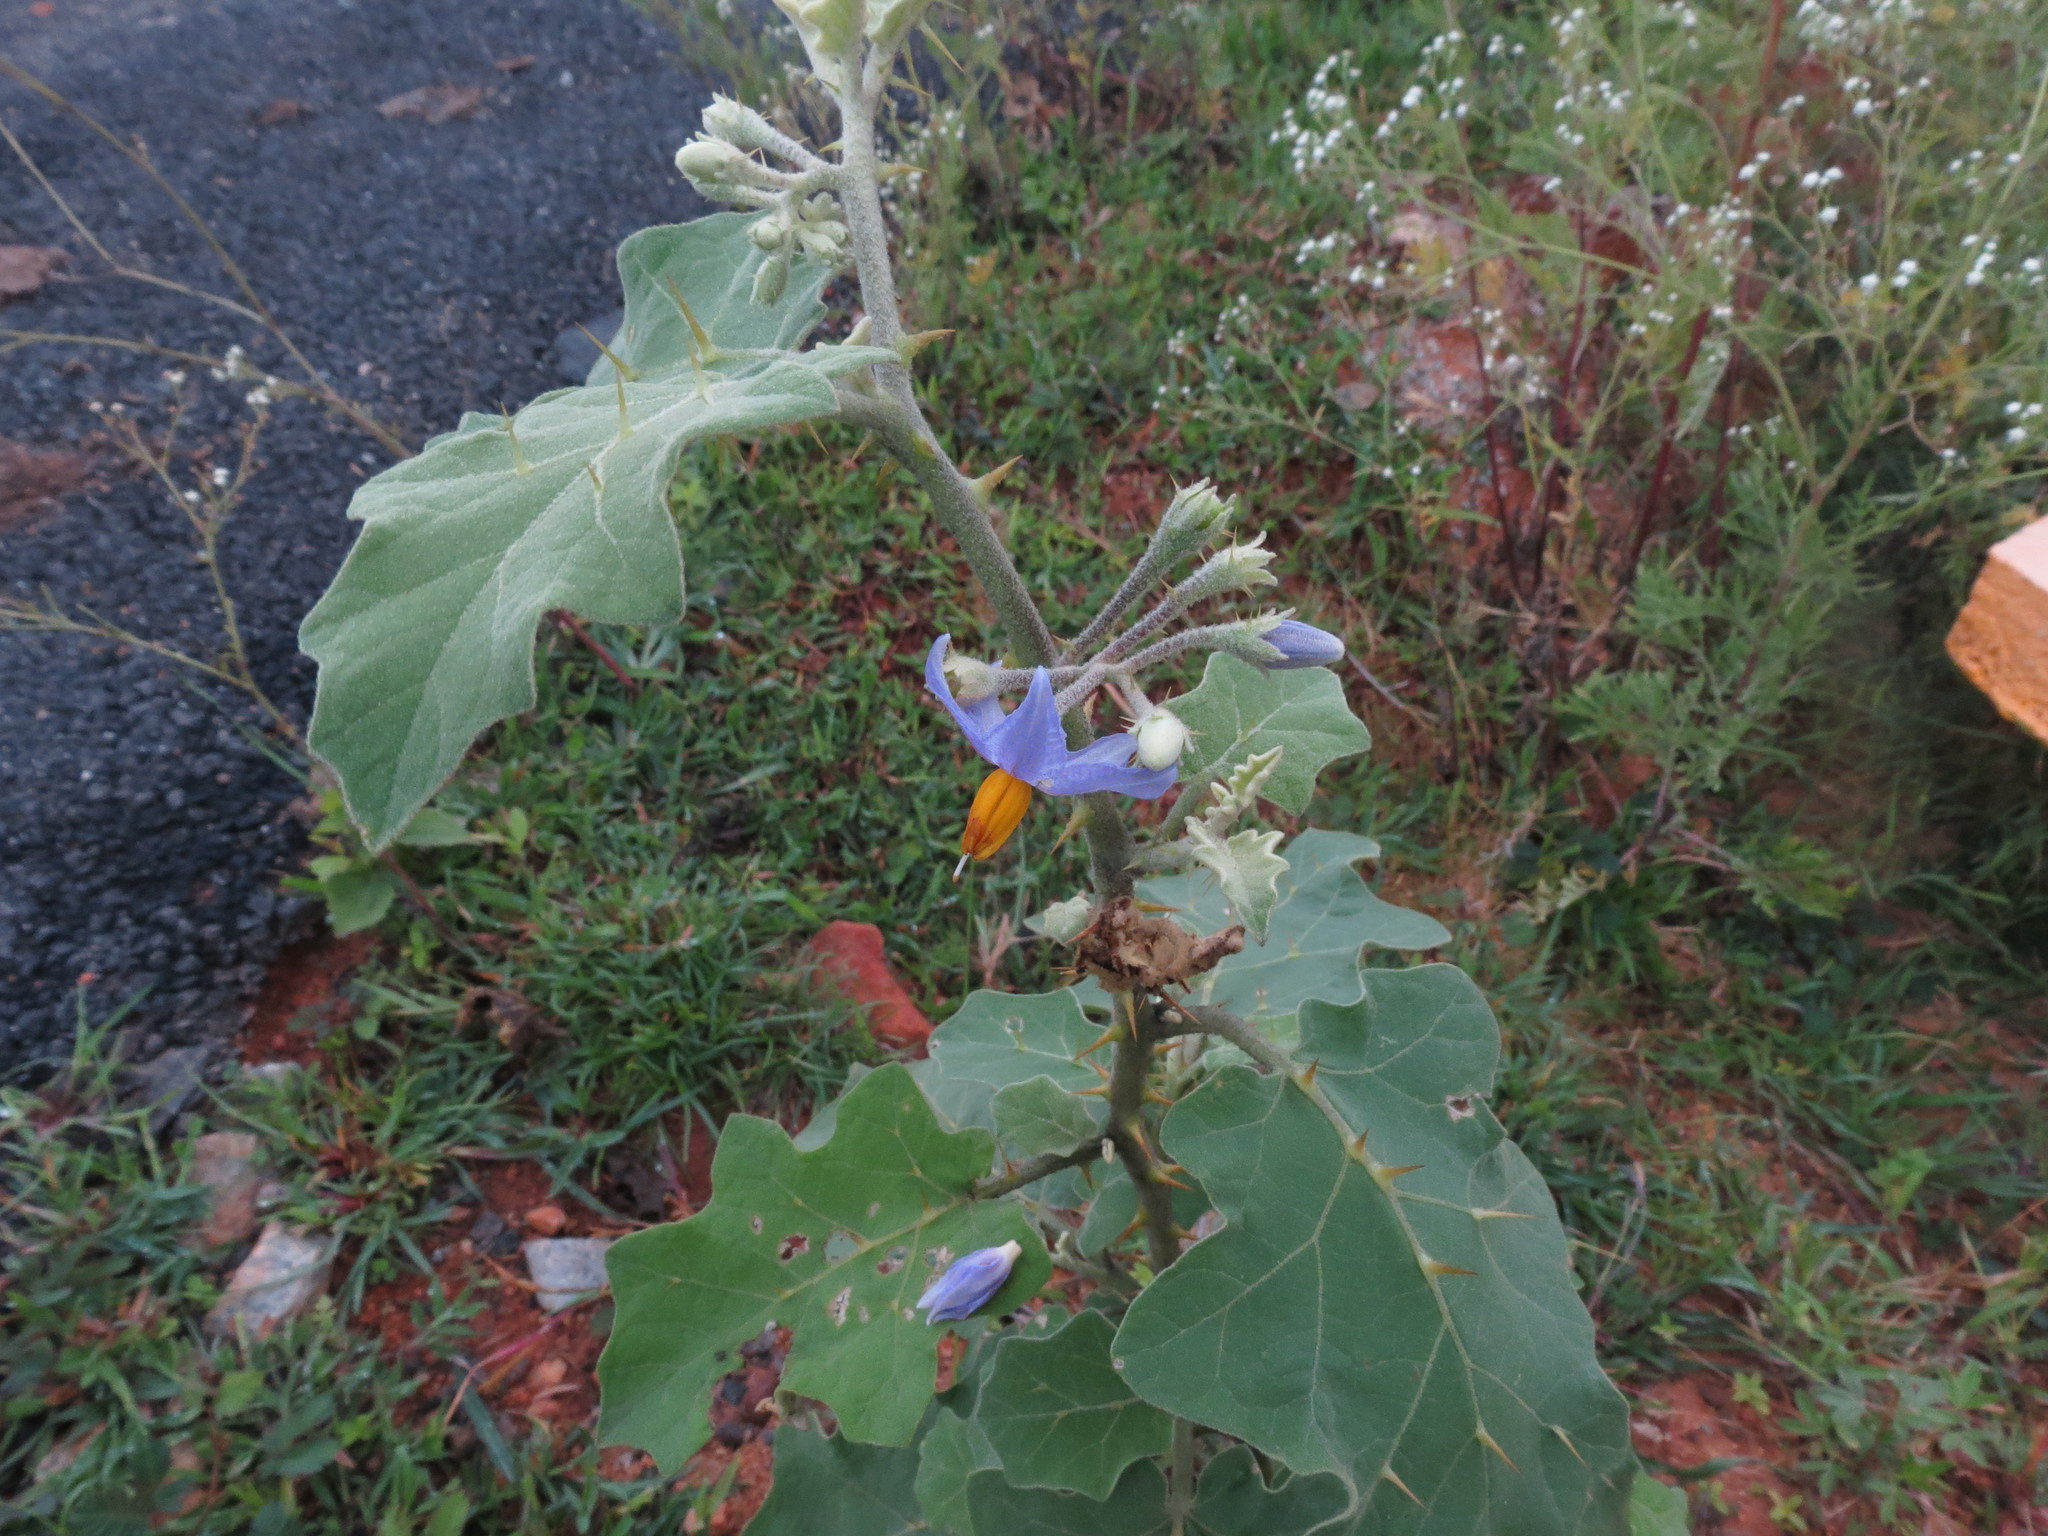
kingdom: Plantae
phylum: Tracheophyta
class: Magnoliopsida
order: Solanales
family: Solanaceae
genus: Solanum
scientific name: Solanum violaceum
